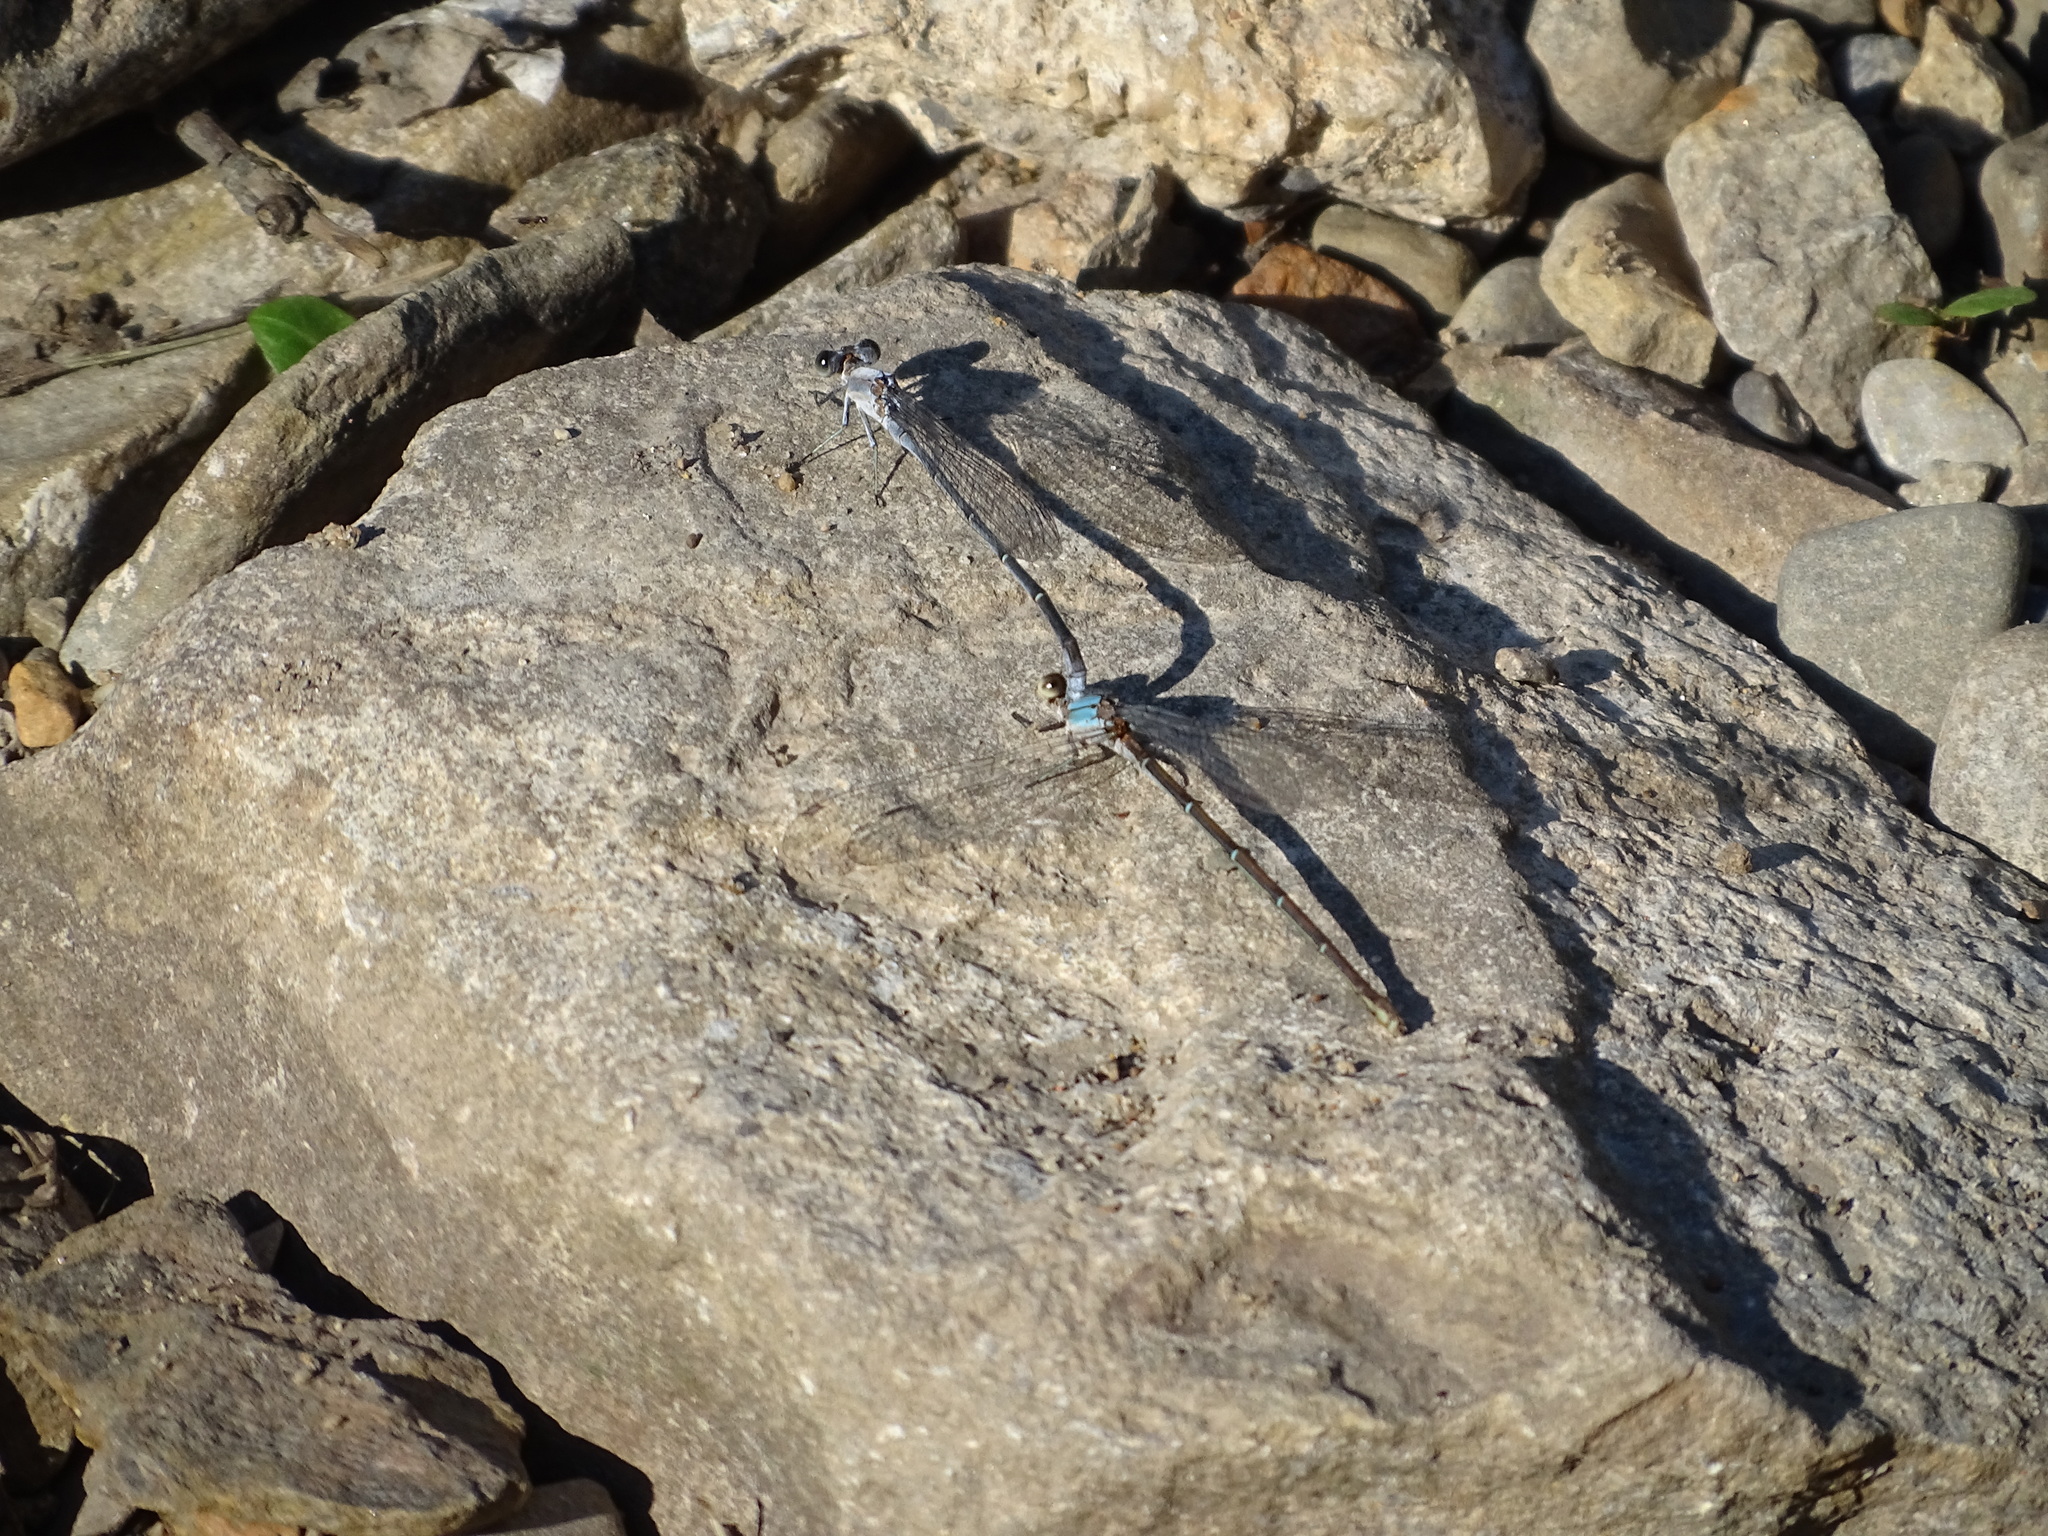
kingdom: Animalia
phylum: Arthropoda
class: Insecta
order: Odonata
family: Coenagrionidae
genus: Argia
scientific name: Argia moesta
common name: Powdered dancer
